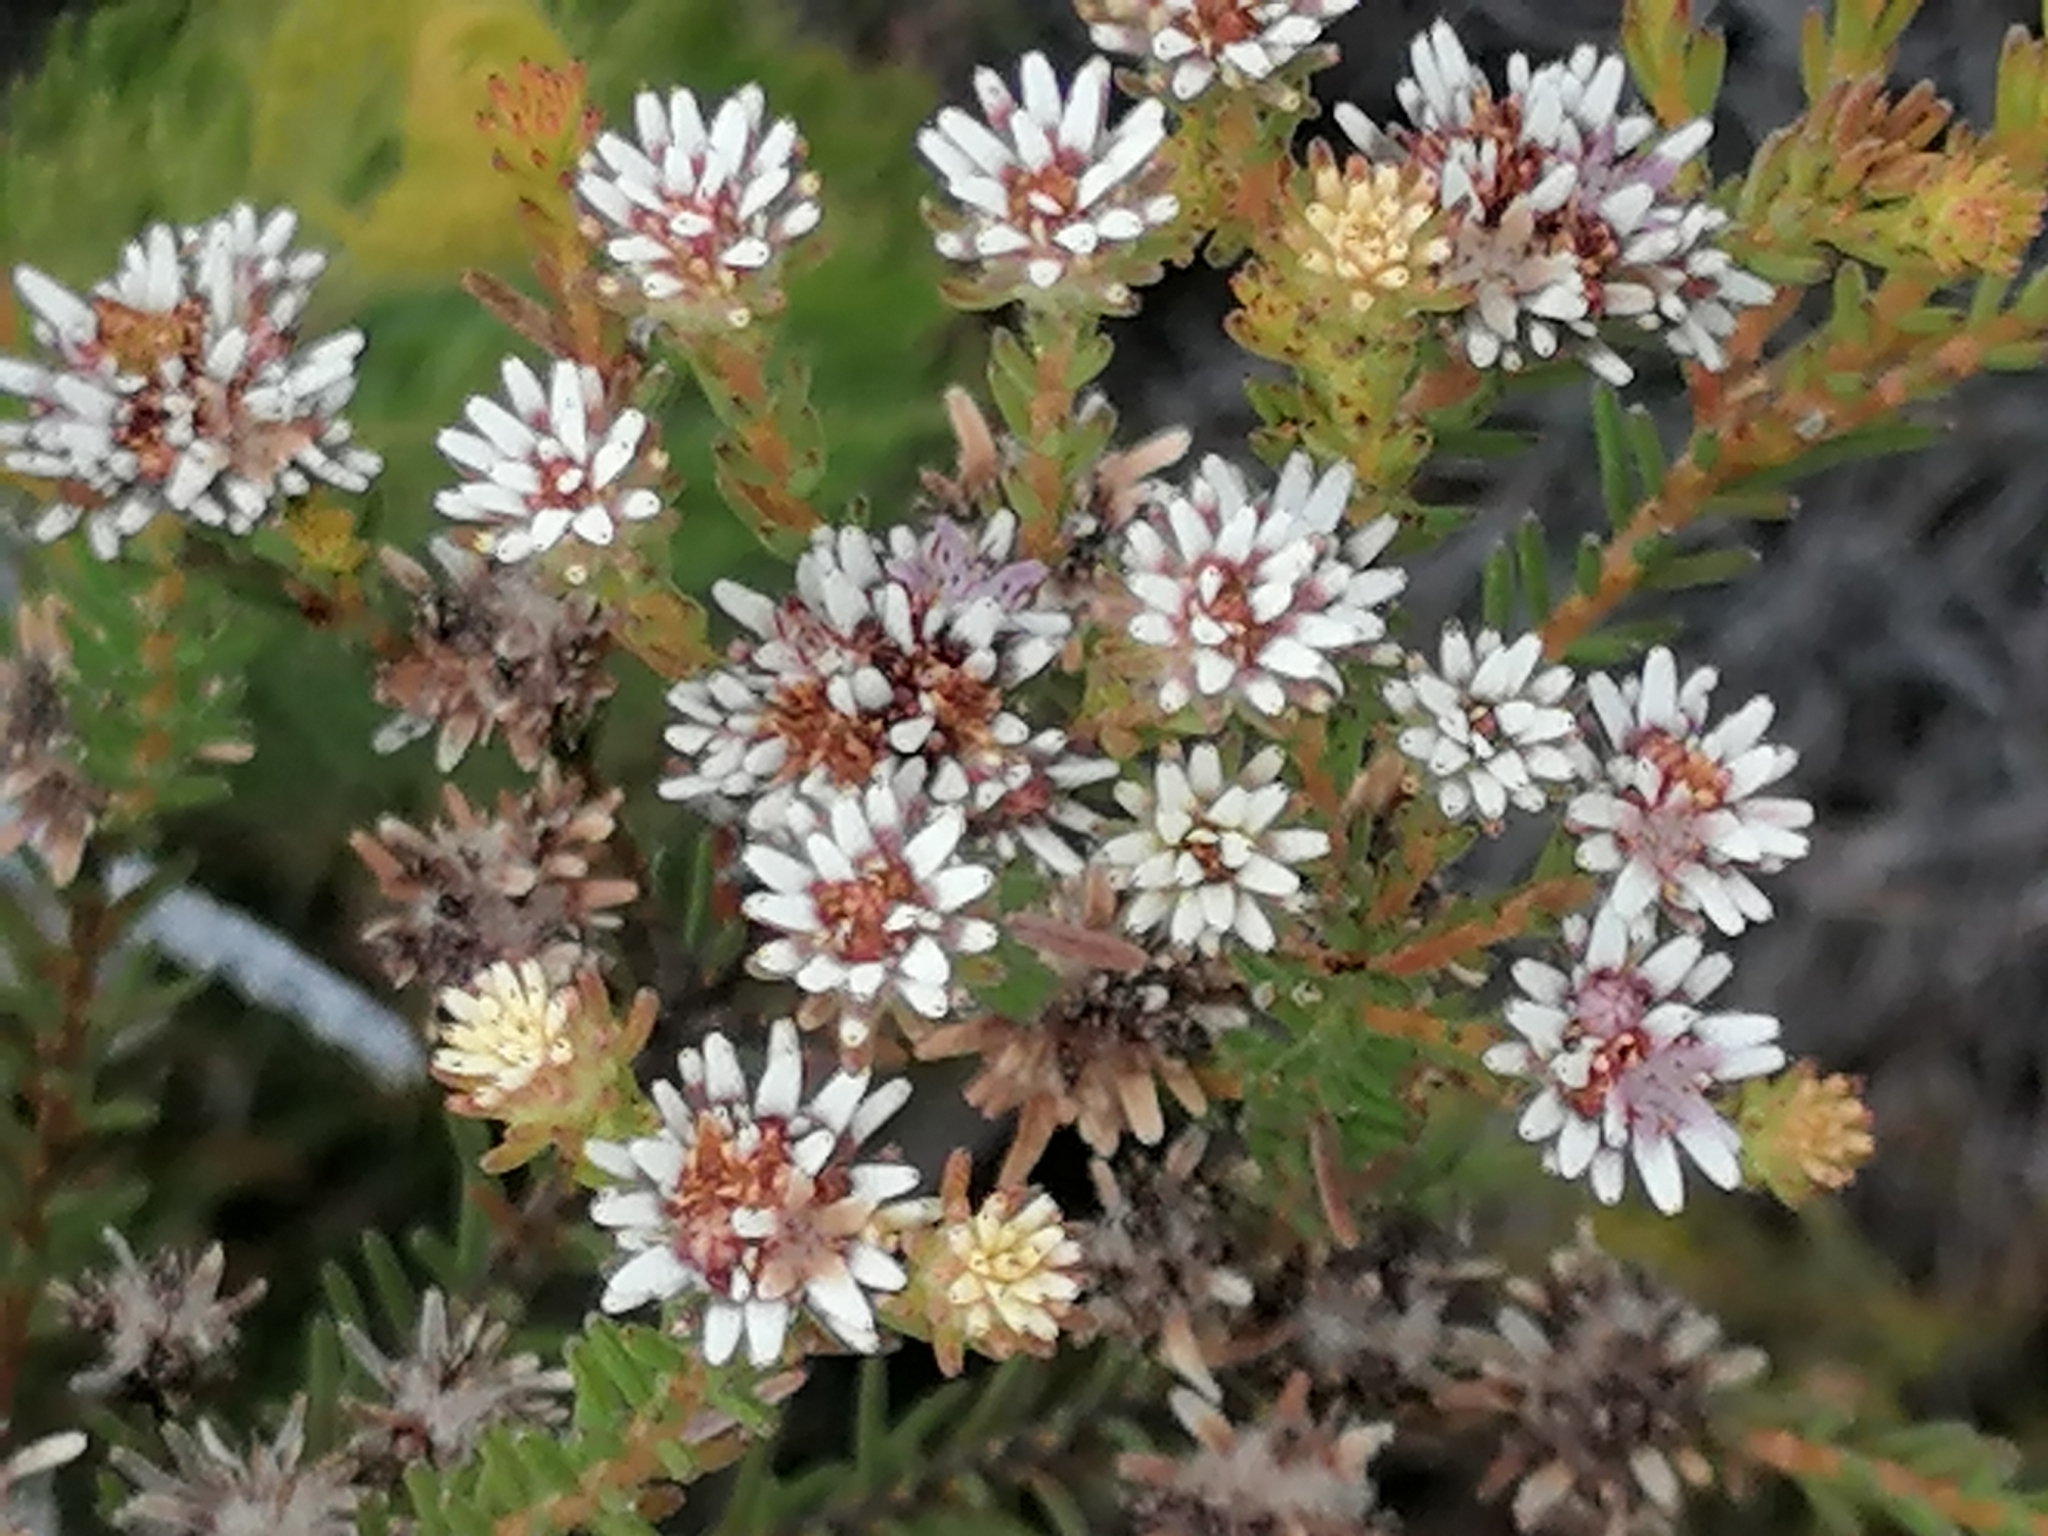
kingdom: Plantae
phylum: Tracheophyta
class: Magnoliopsida
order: Bruniales
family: Bruniaceae
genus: Staavia
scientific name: Staavia radiata
